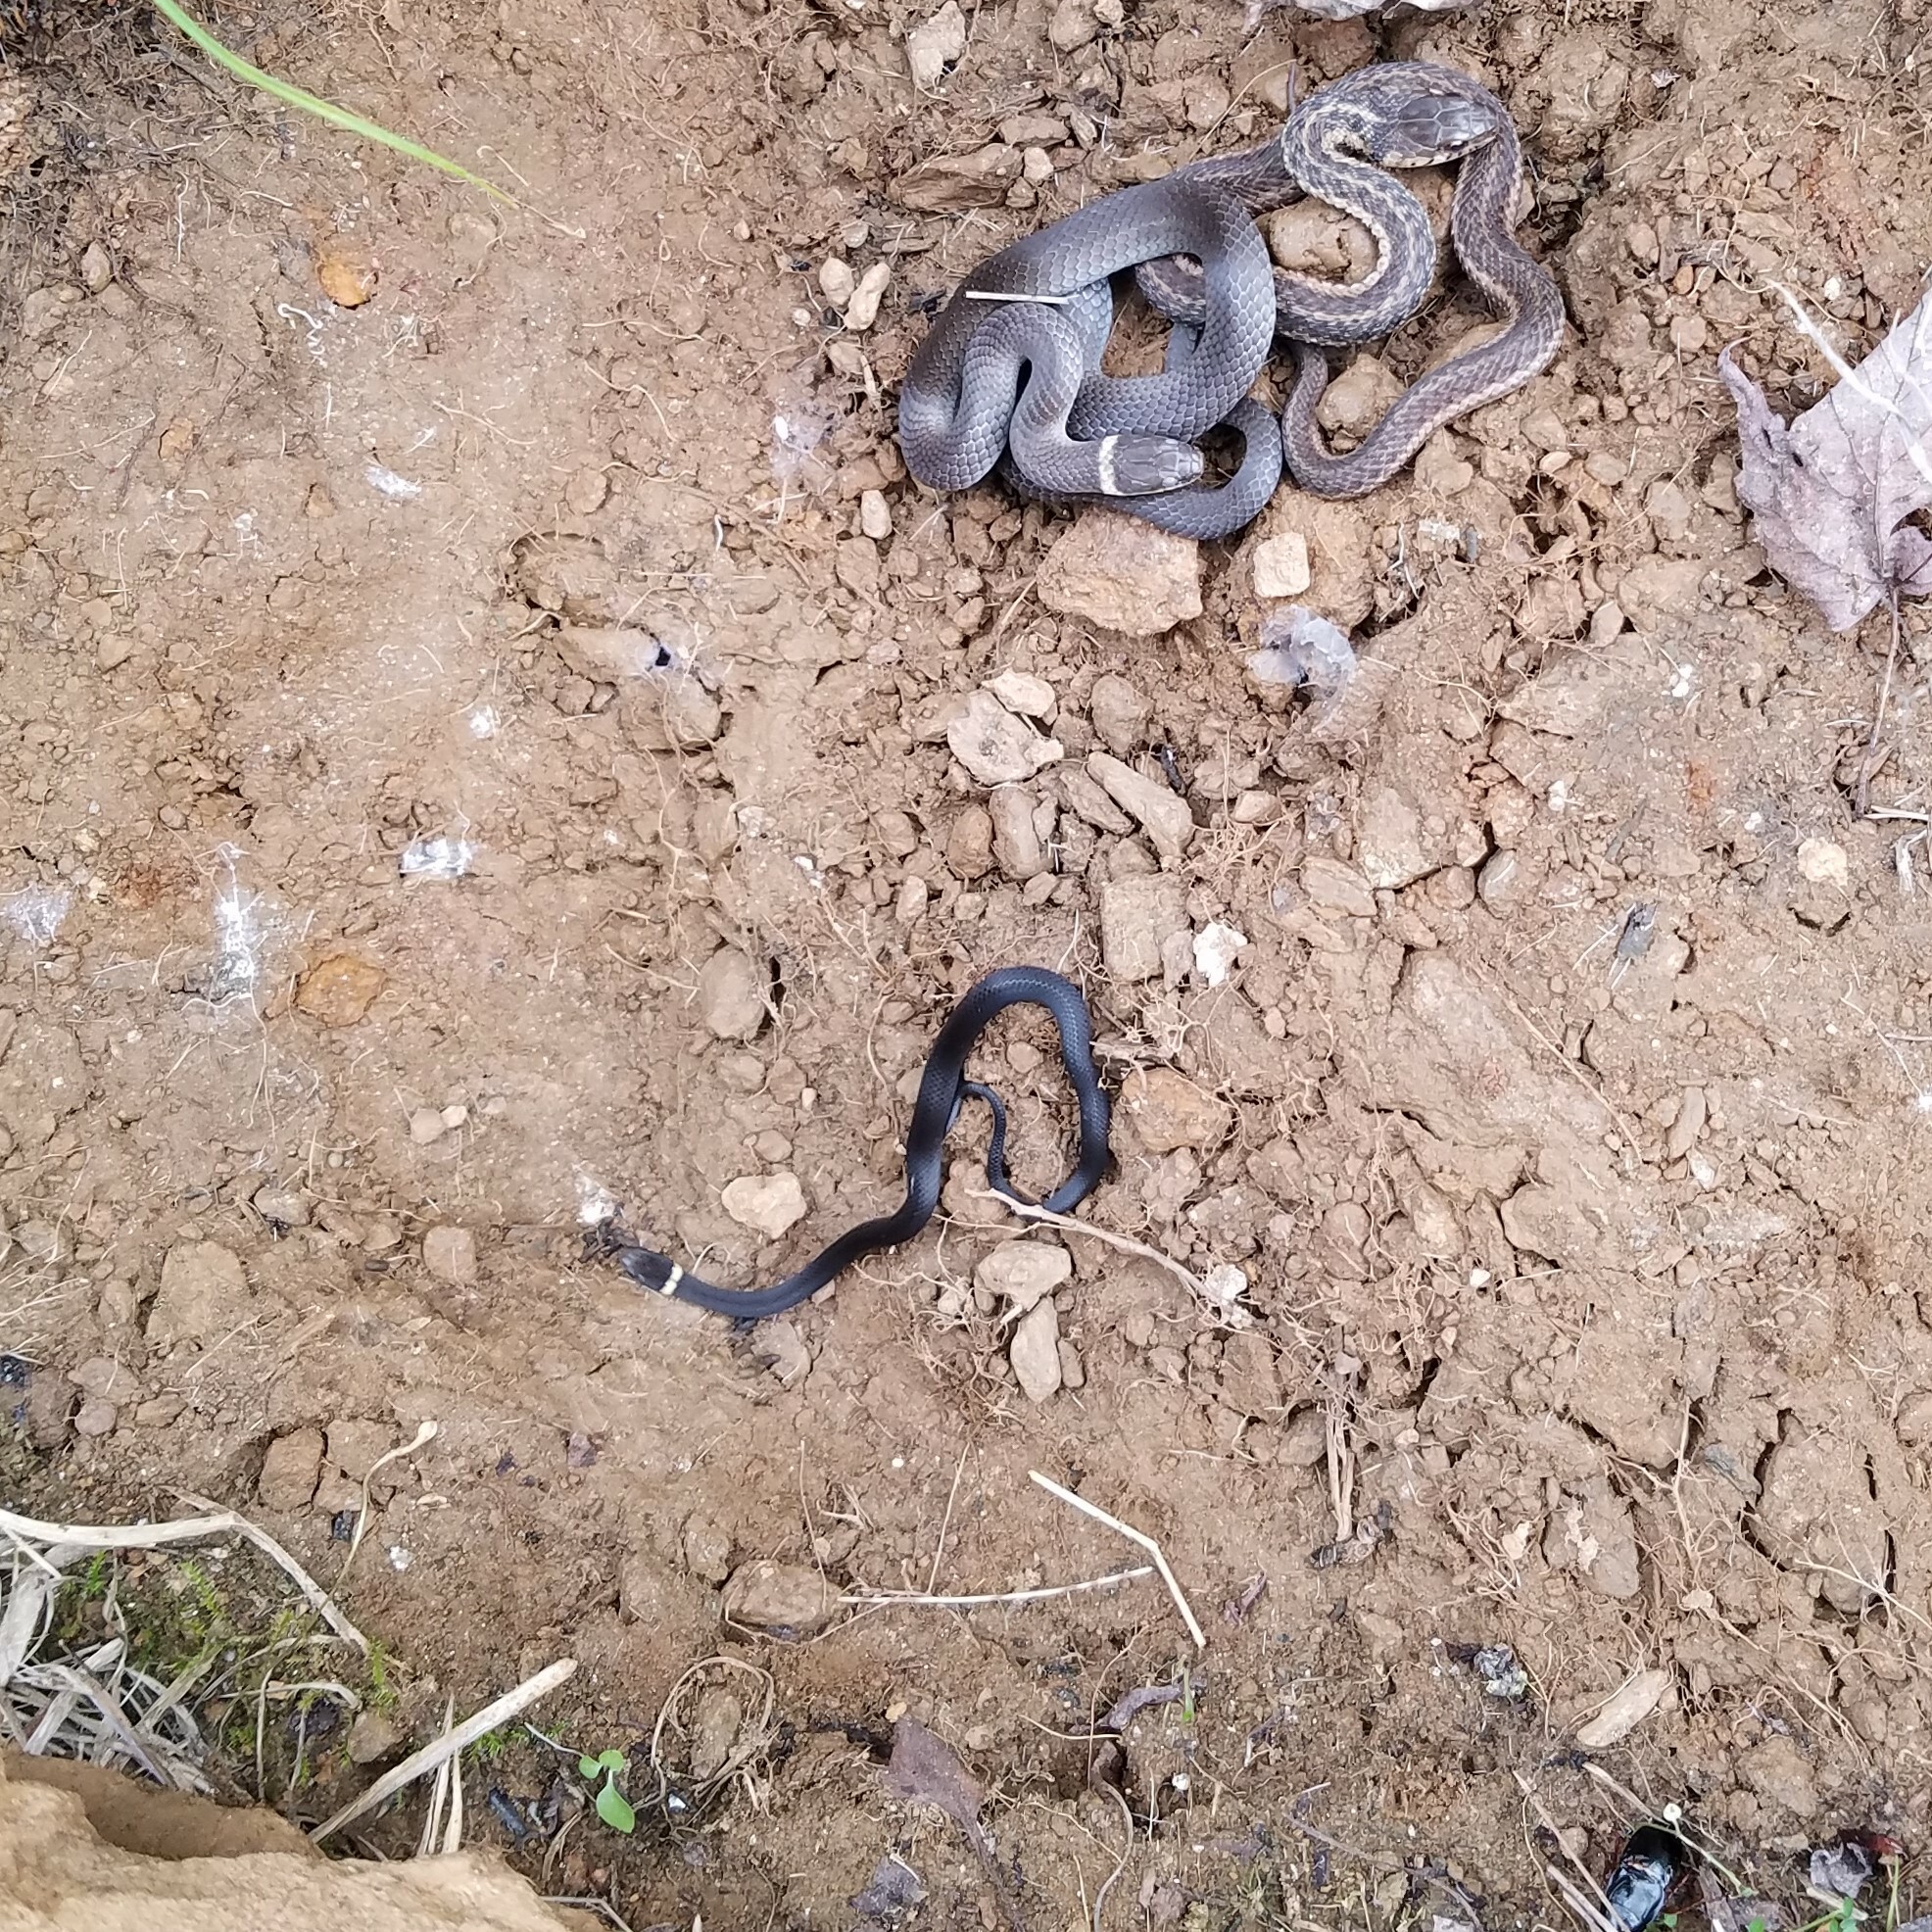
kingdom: Animalia
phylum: Chordata
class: Squamata
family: Colubridae
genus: Diadophis
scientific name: Diadophis punctatus
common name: Ringneck snake
